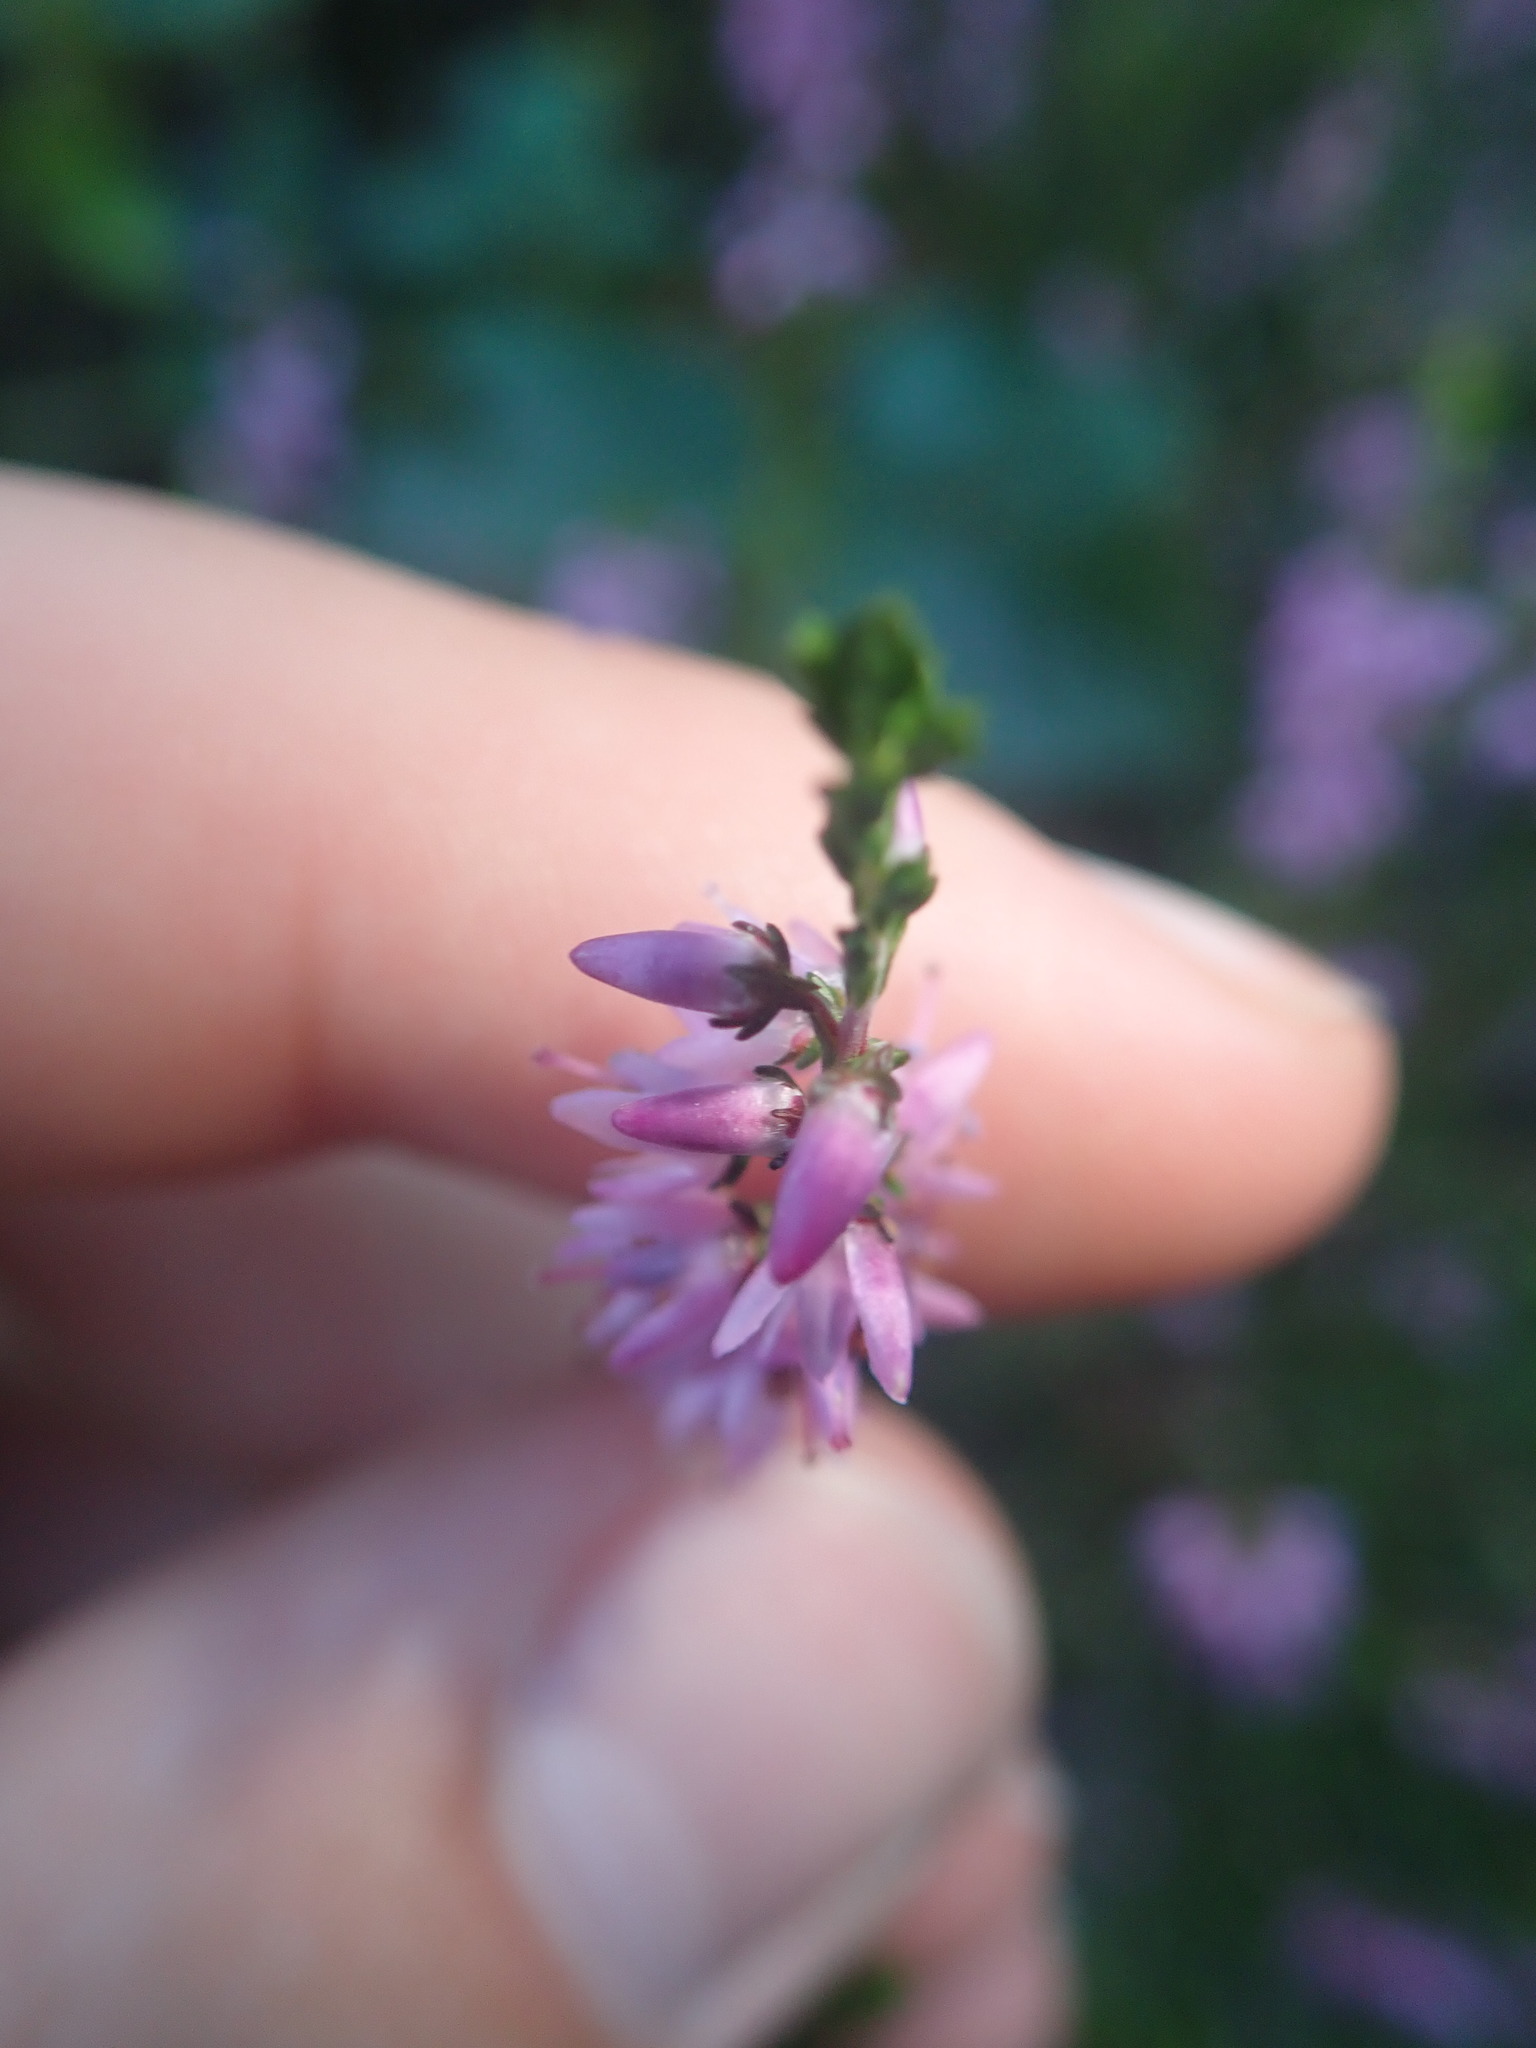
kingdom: Plantae
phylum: Tracheophyta
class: Magnoliopsida
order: Ericales
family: Ericaceae
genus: Calluna
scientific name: Calluna vulgaris
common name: Heather
